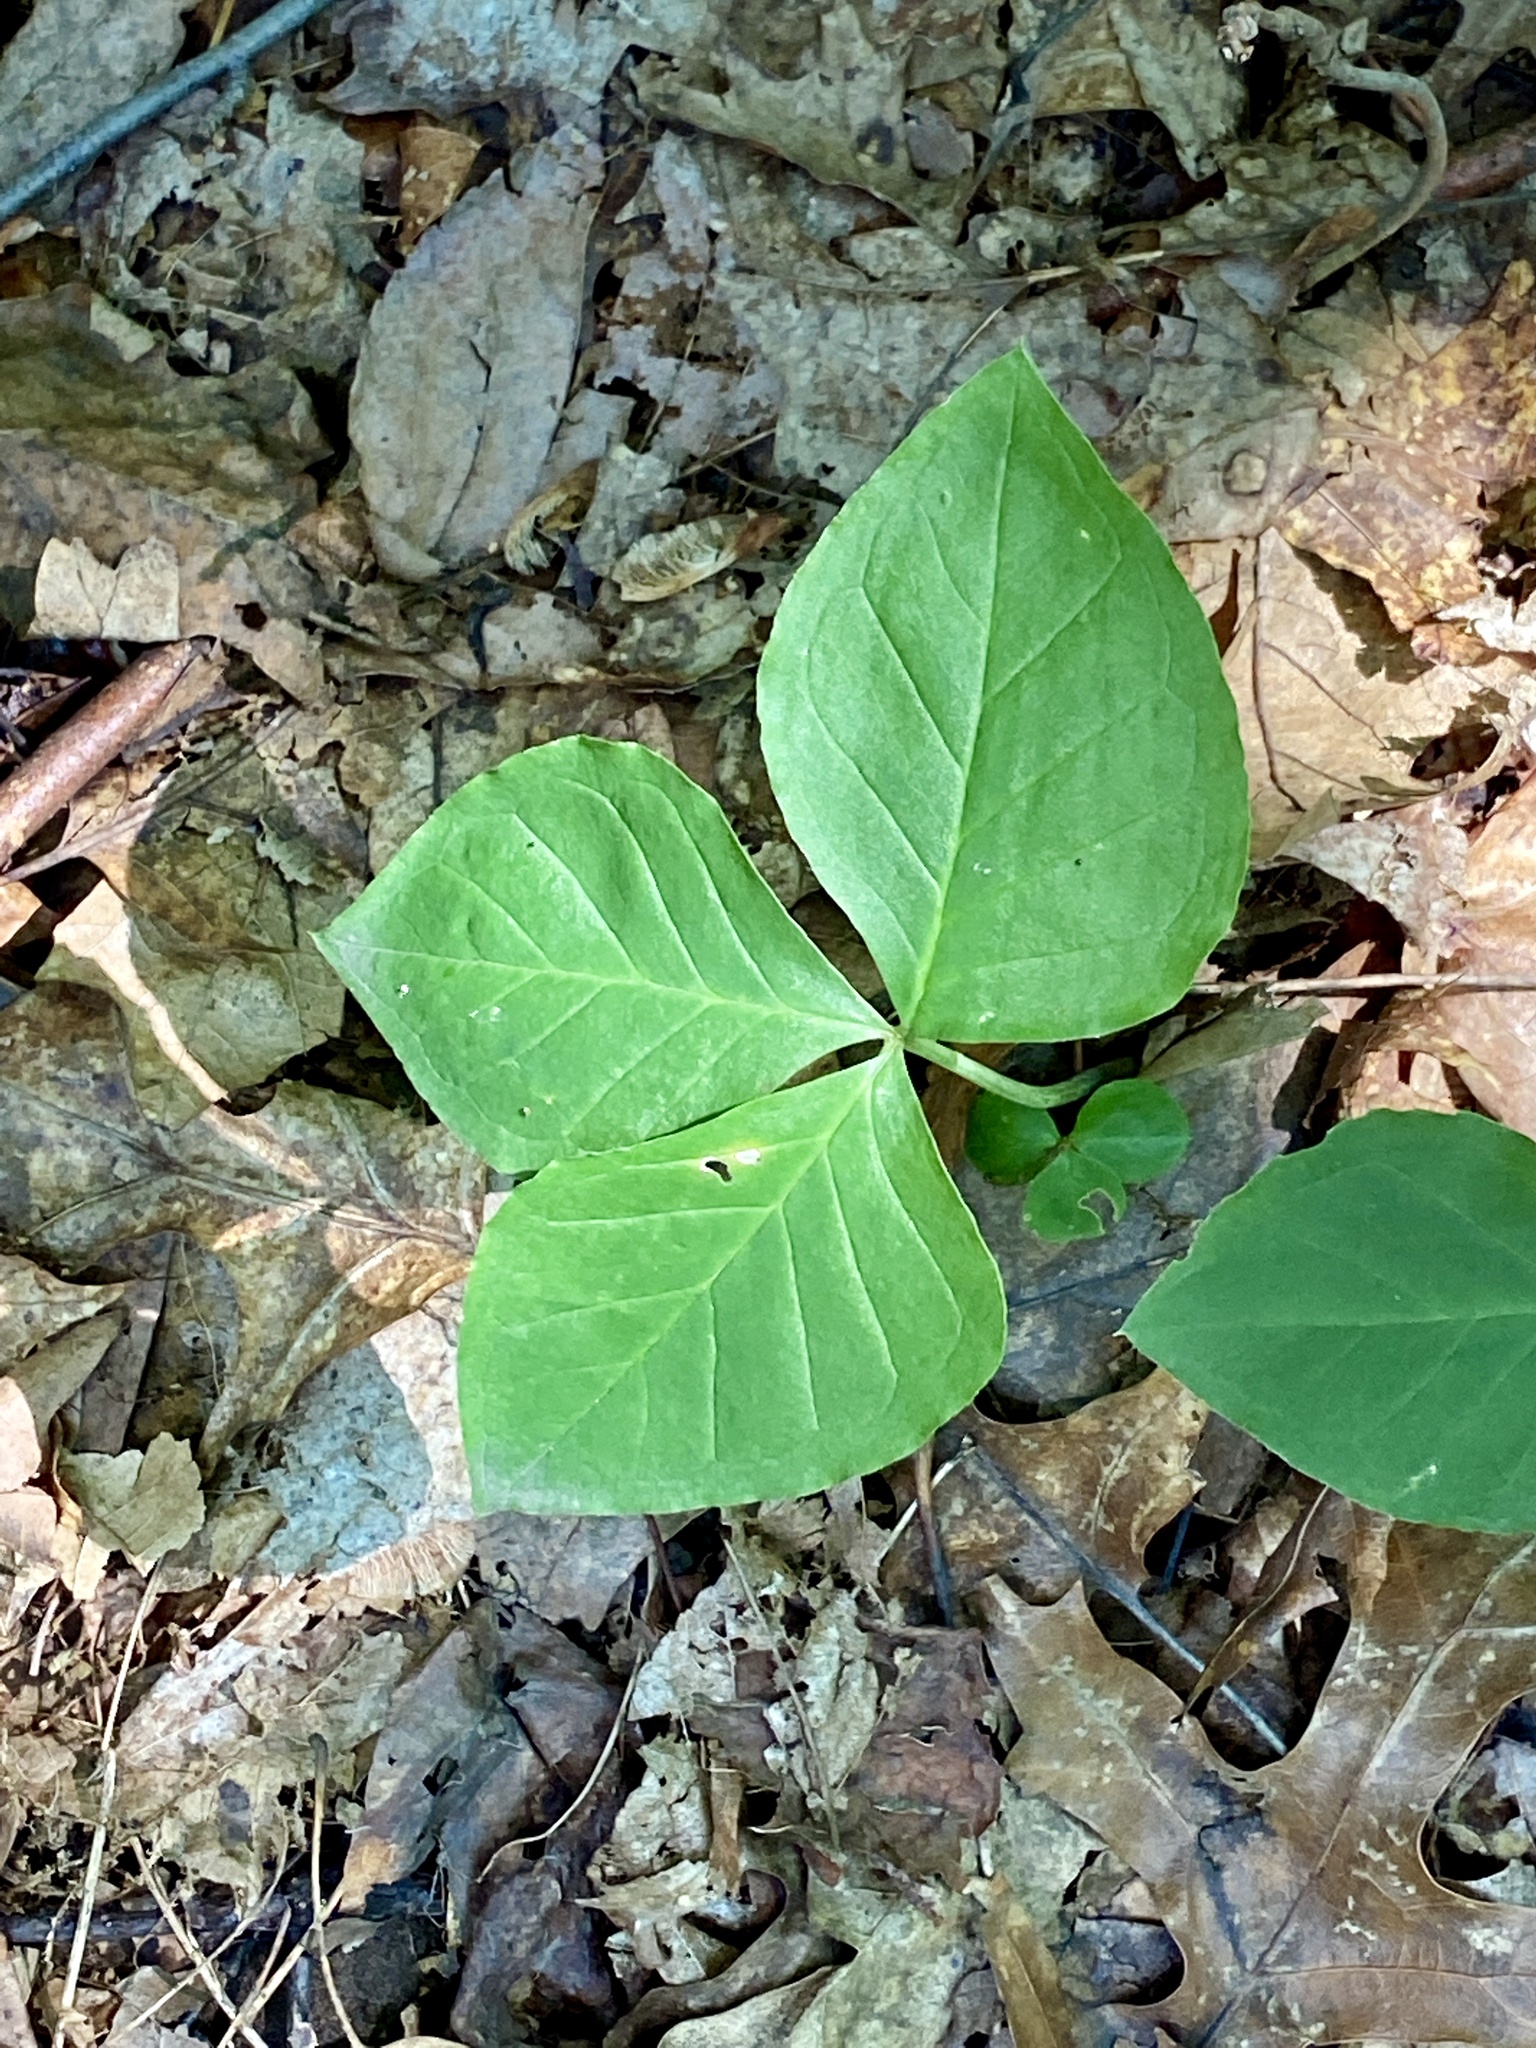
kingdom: Plantae
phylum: Tracheophyta
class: Liliopsida
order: Alismatales
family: Araceae
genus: Arisaema
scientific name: Arisaema triphyllum
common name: Jack-in-the-pulpit
